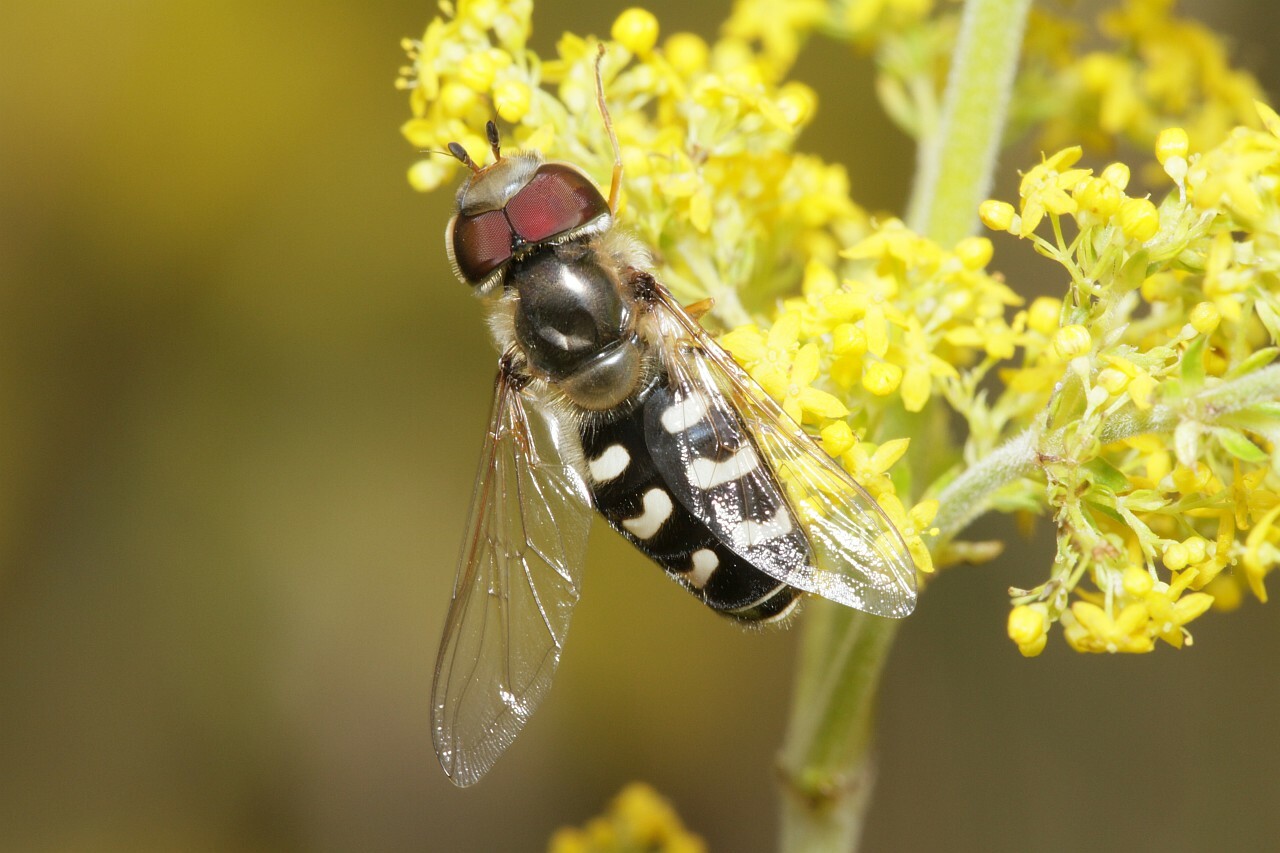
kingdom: Animalia
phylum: Arthropoda
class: Insecta
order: Diptera
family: Syrphidae
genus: Scaeva
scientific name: Scaeva pyrastri
